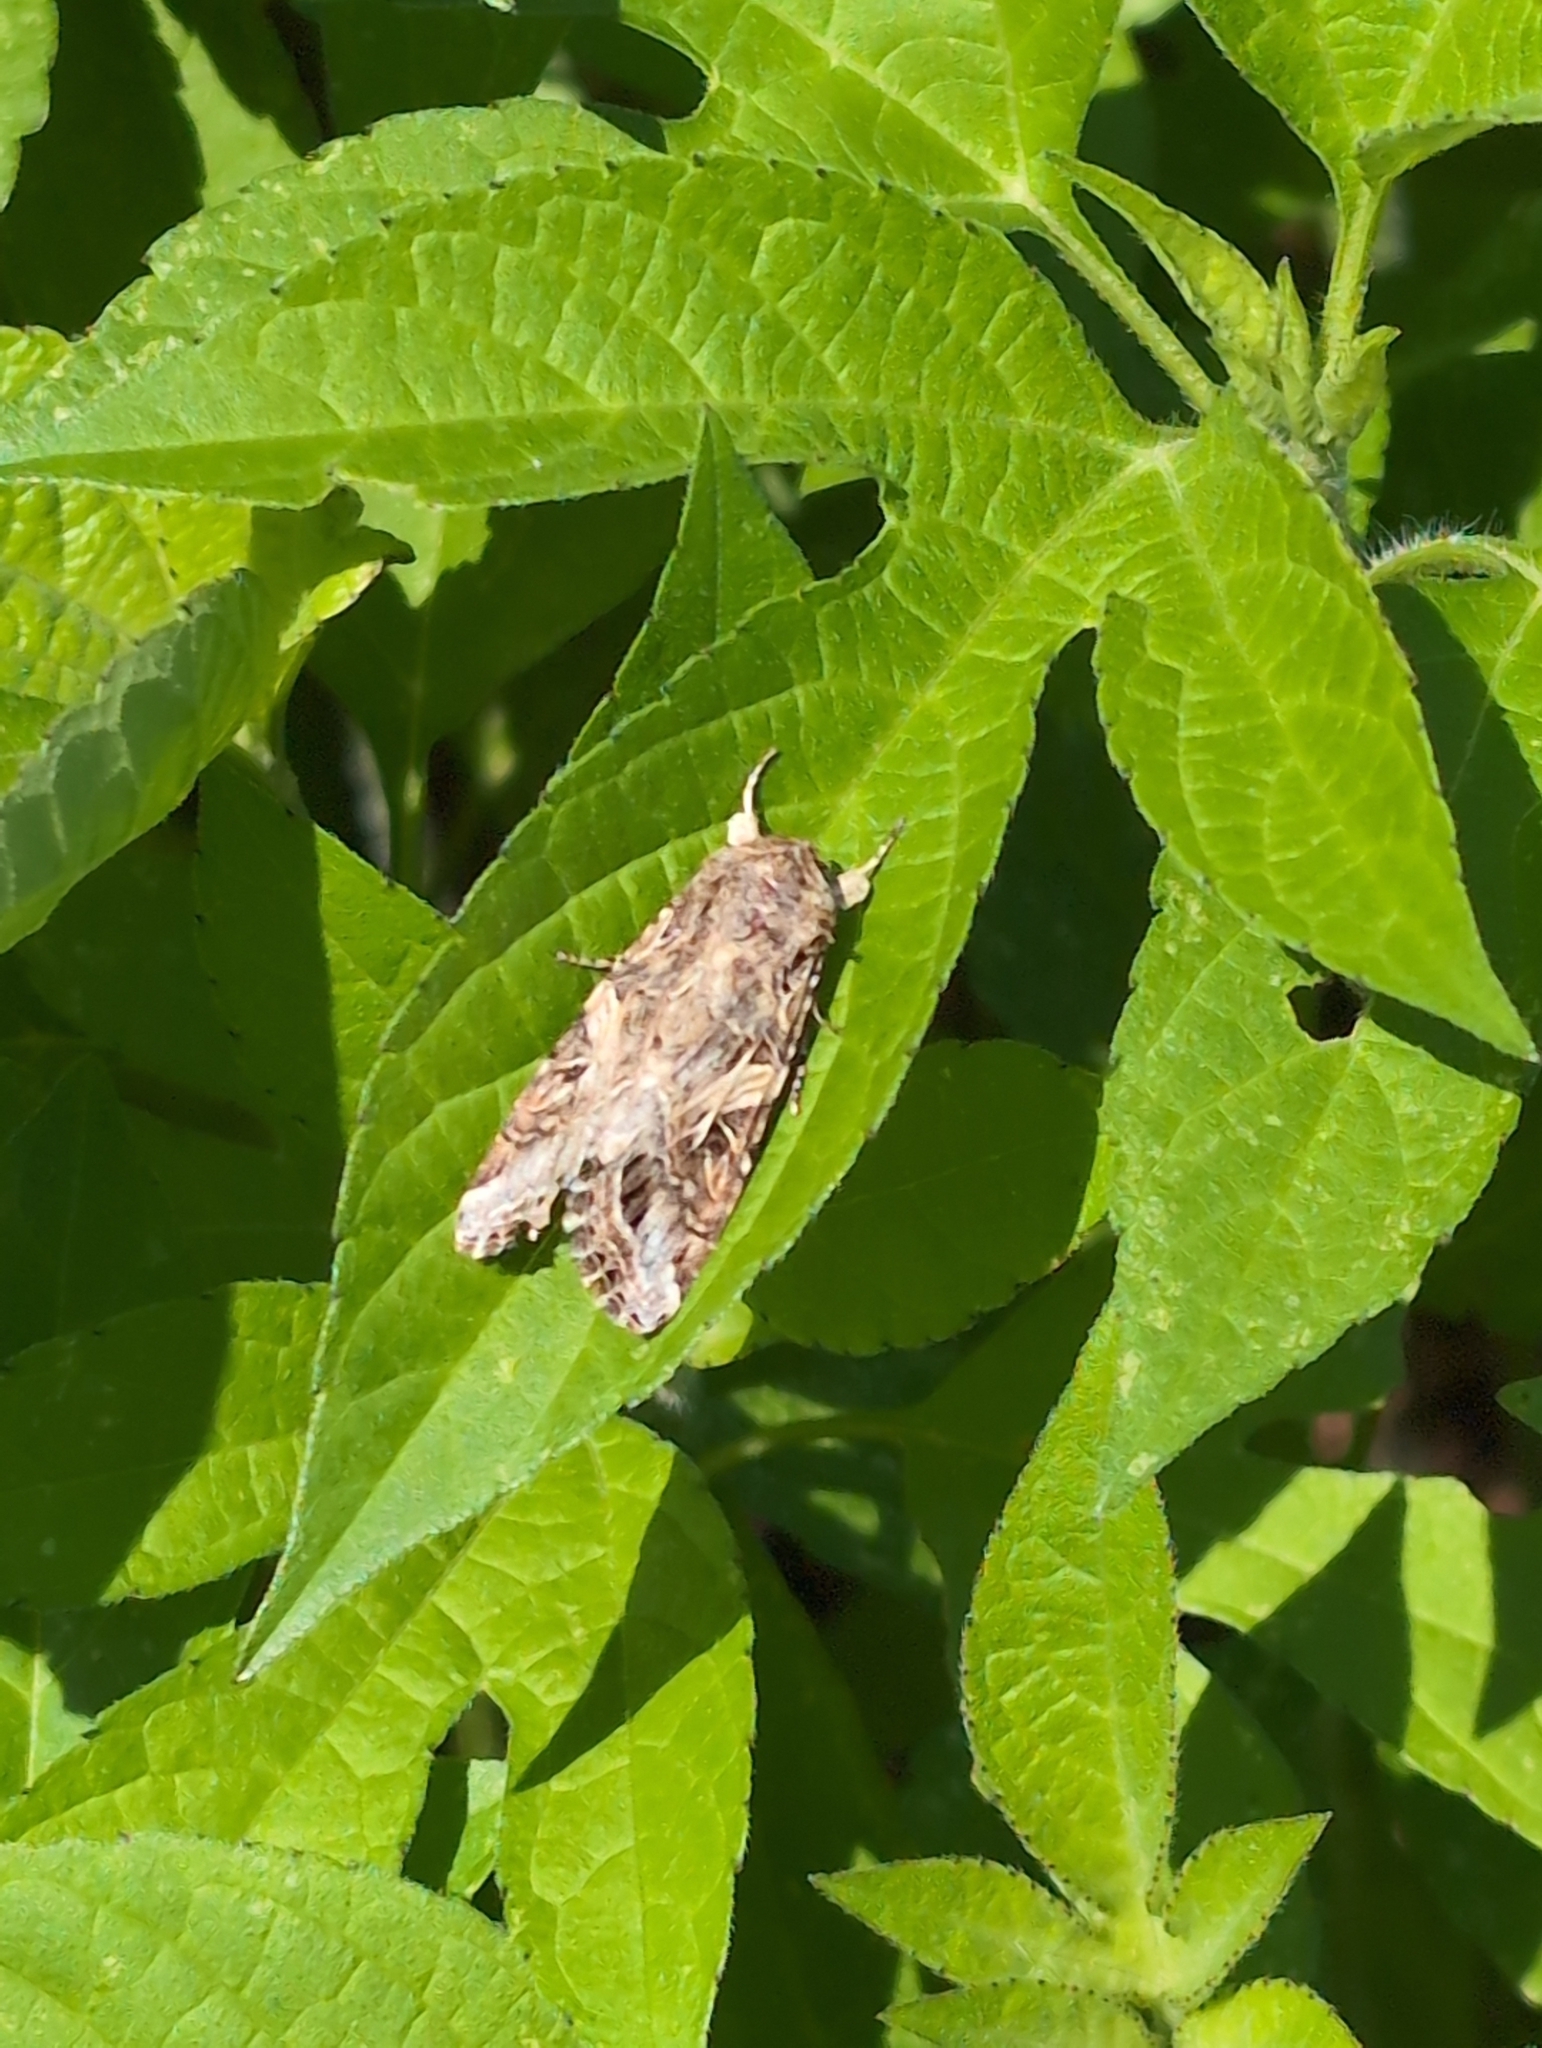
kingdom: Animalia
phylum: Arthropoda
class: Insecta
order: Lepidoptera
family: Noctuidae
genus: Spodoptera
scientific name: Spodoptera ornithogalli
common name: Yellow-striped armyworm
